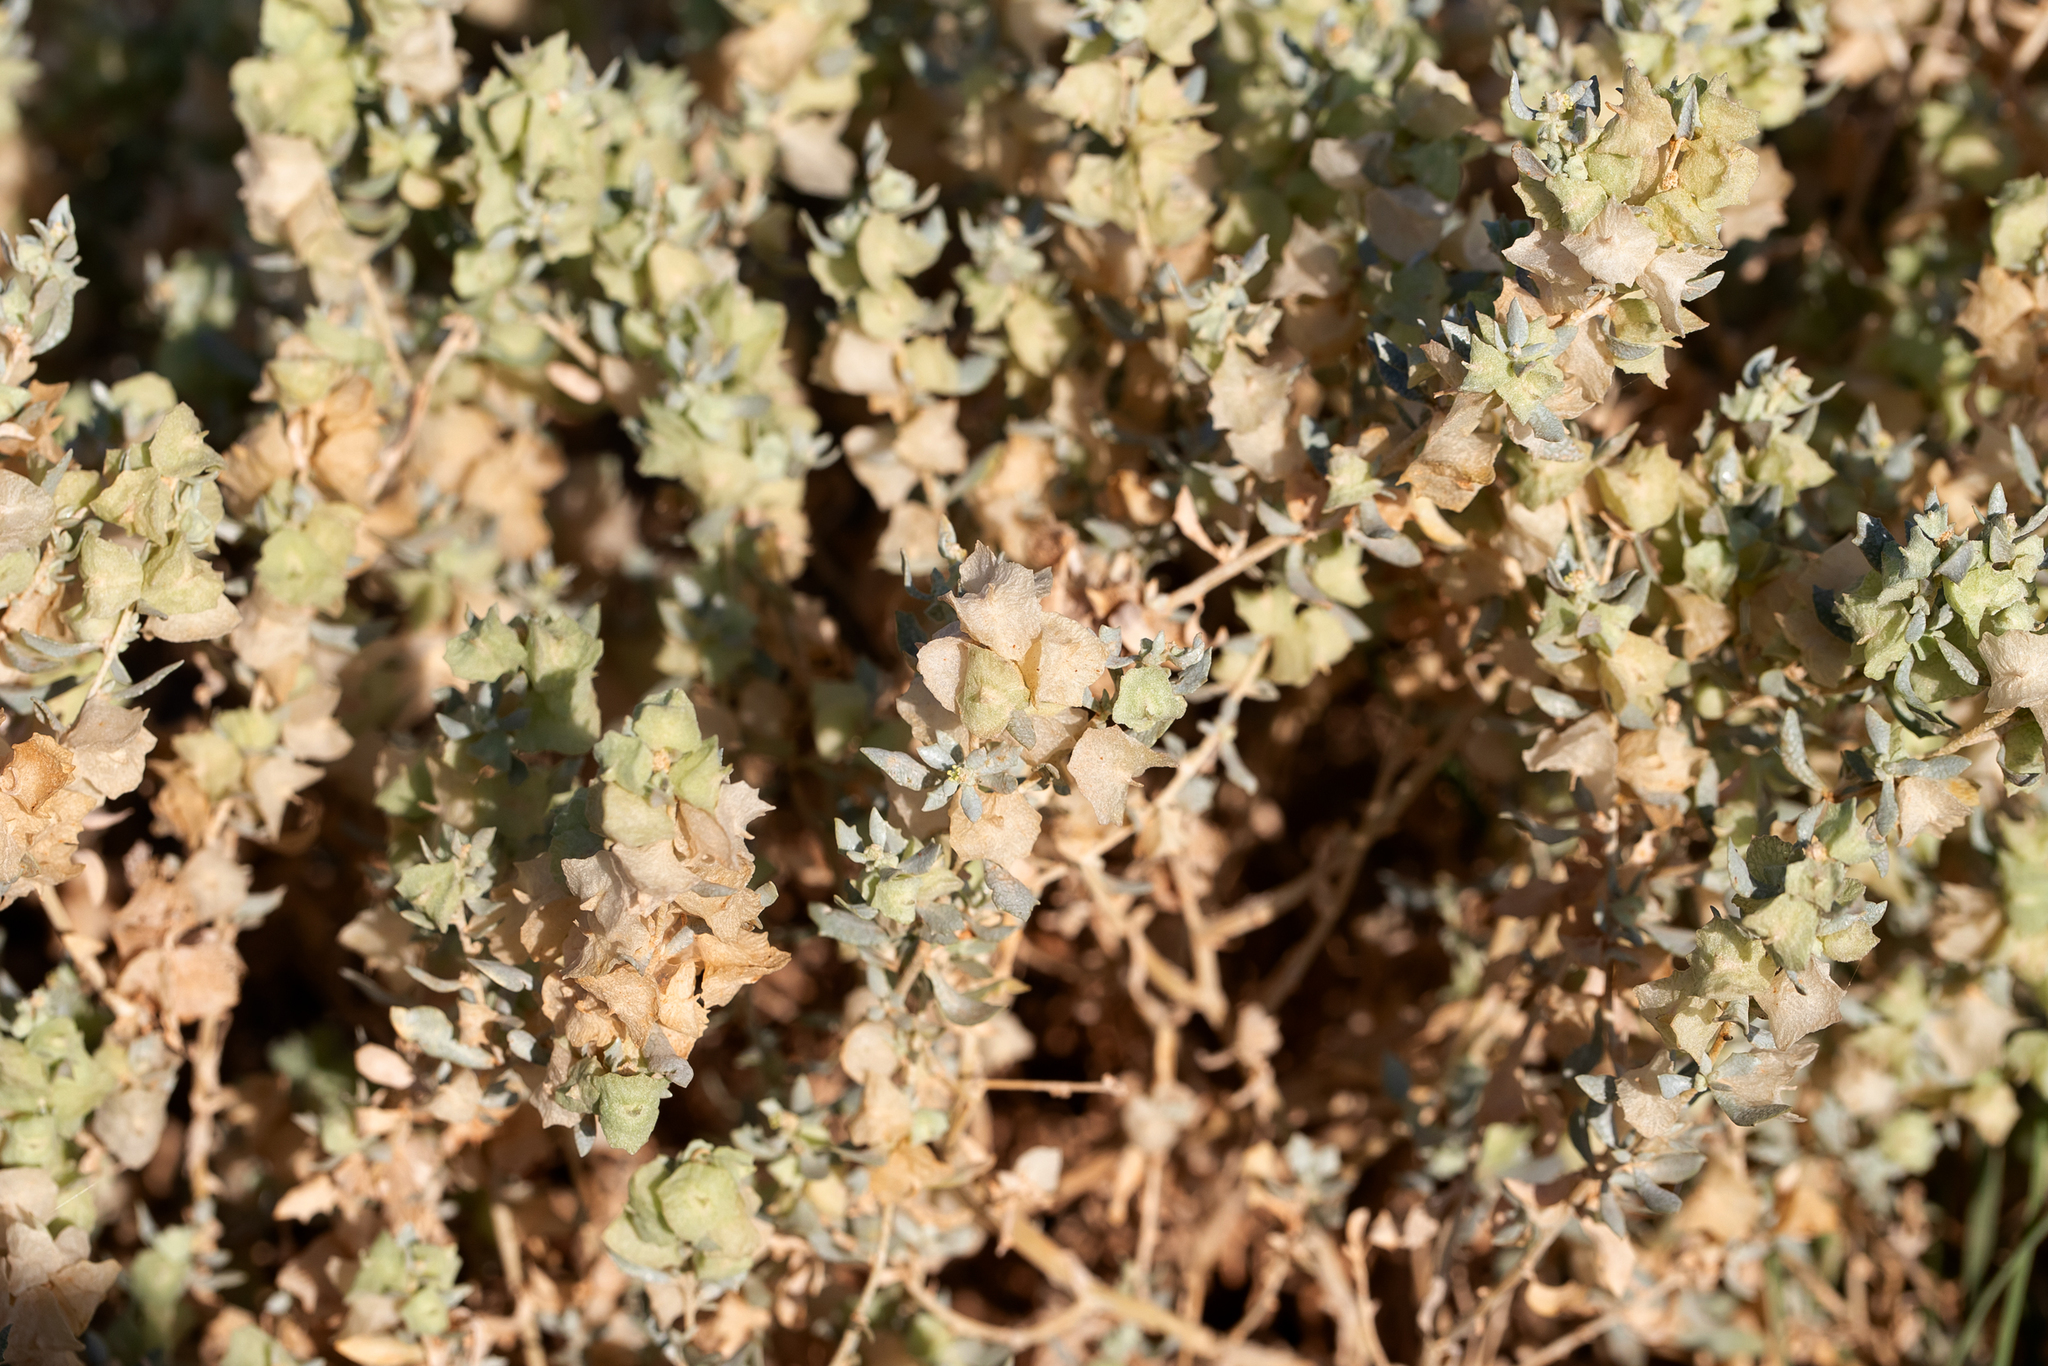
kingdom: Plantae
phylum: Tracheophyta
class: Magnoliopsida
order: Caryophyllales
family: Amaranthaceae
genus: Atriplex
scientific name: Atriplex lindleyi
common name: Lindley's saltbush
